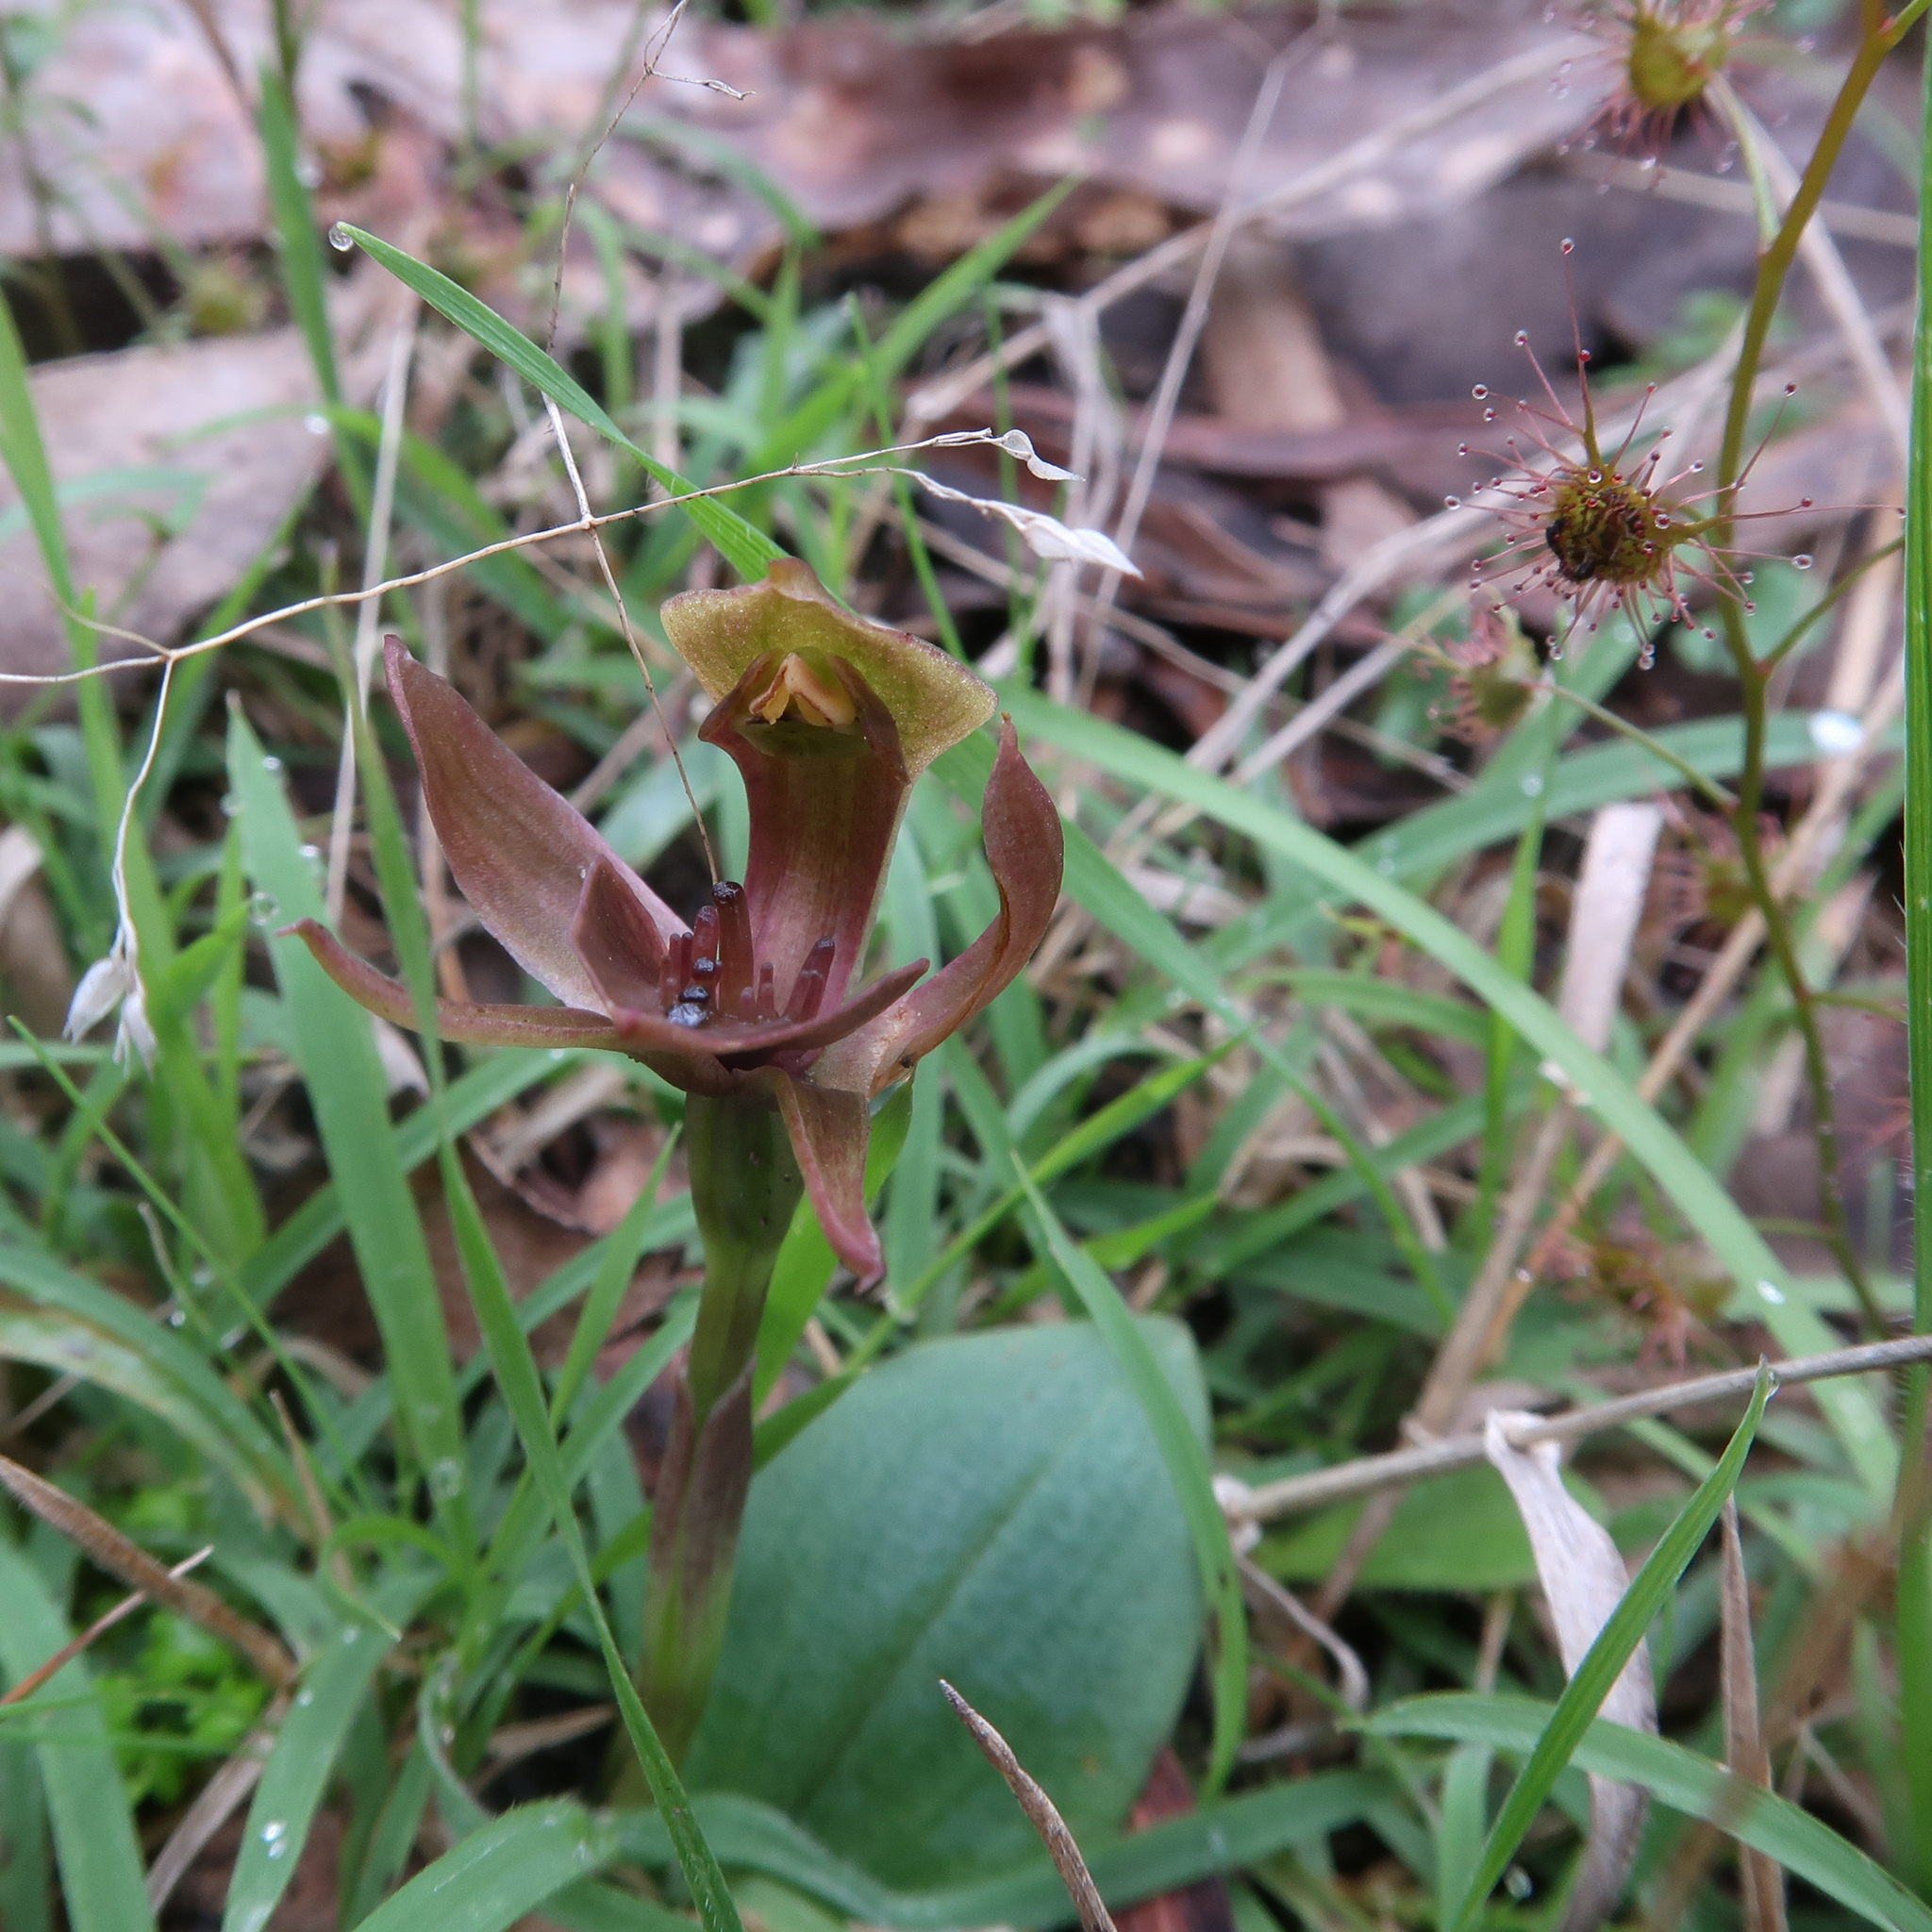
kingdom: Plantae
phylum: Tracheophyta
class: Liliopsida
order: Asparagales
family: Orchidaceae
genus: Chiloglottis
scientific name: Chiloglottis triceratops
